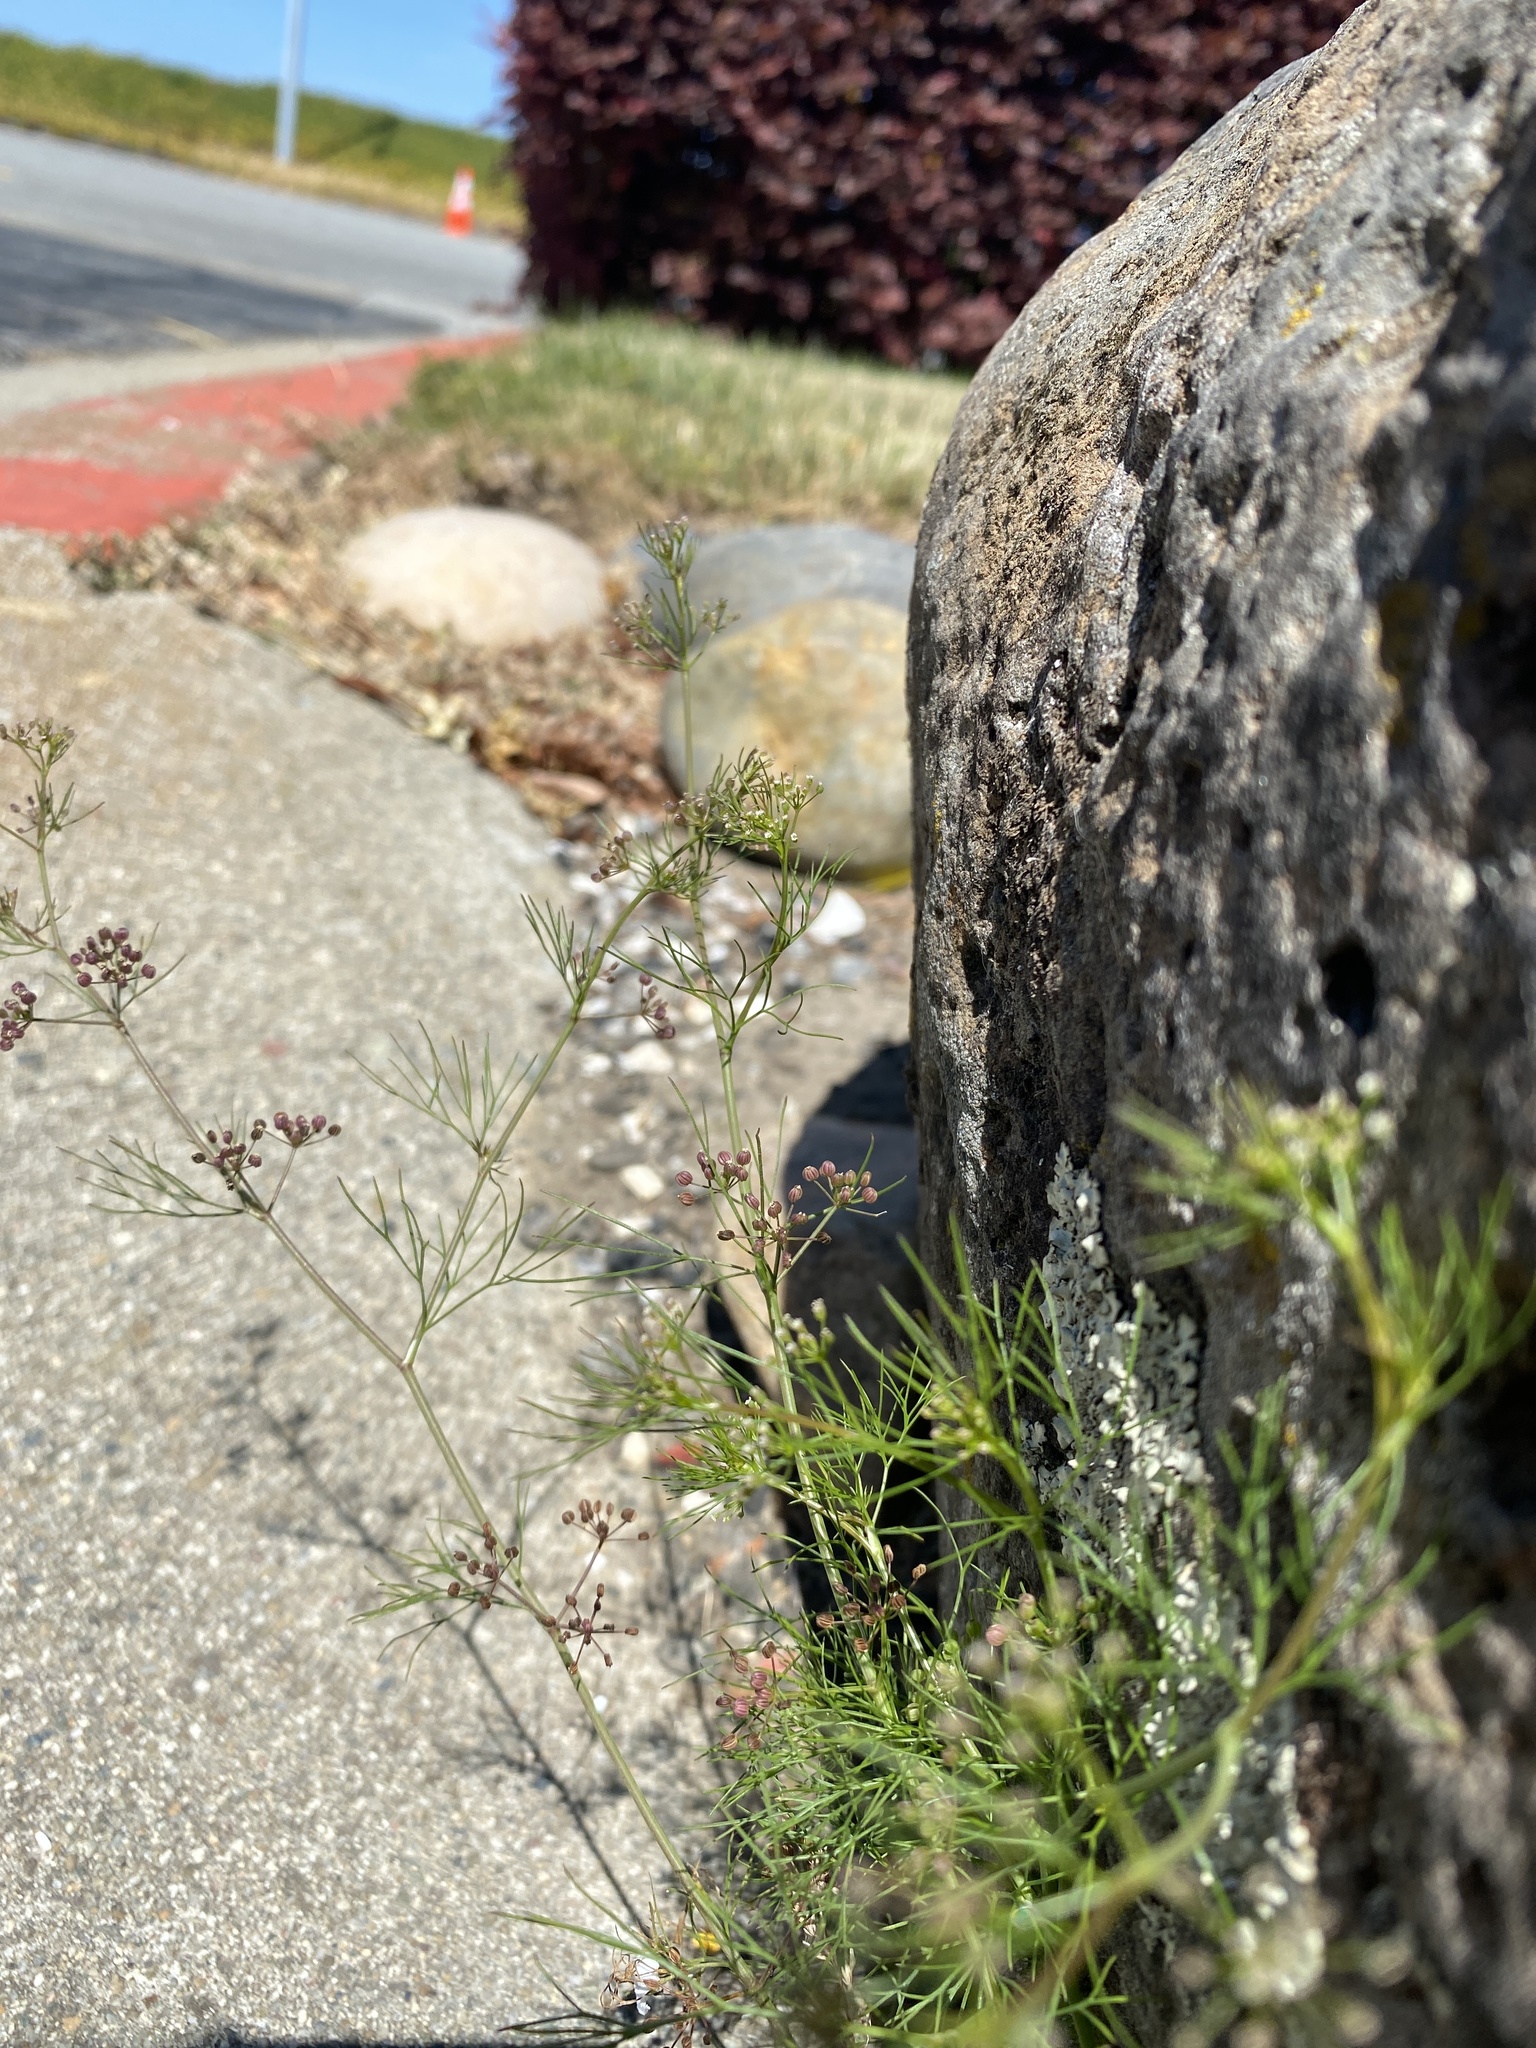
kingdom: Plantae
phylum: Tracheophyta
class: Magnoliopsida
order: Apiales
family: Apiaceae
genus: Cyclospermum
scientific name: Cyclospermum leptophyllum
